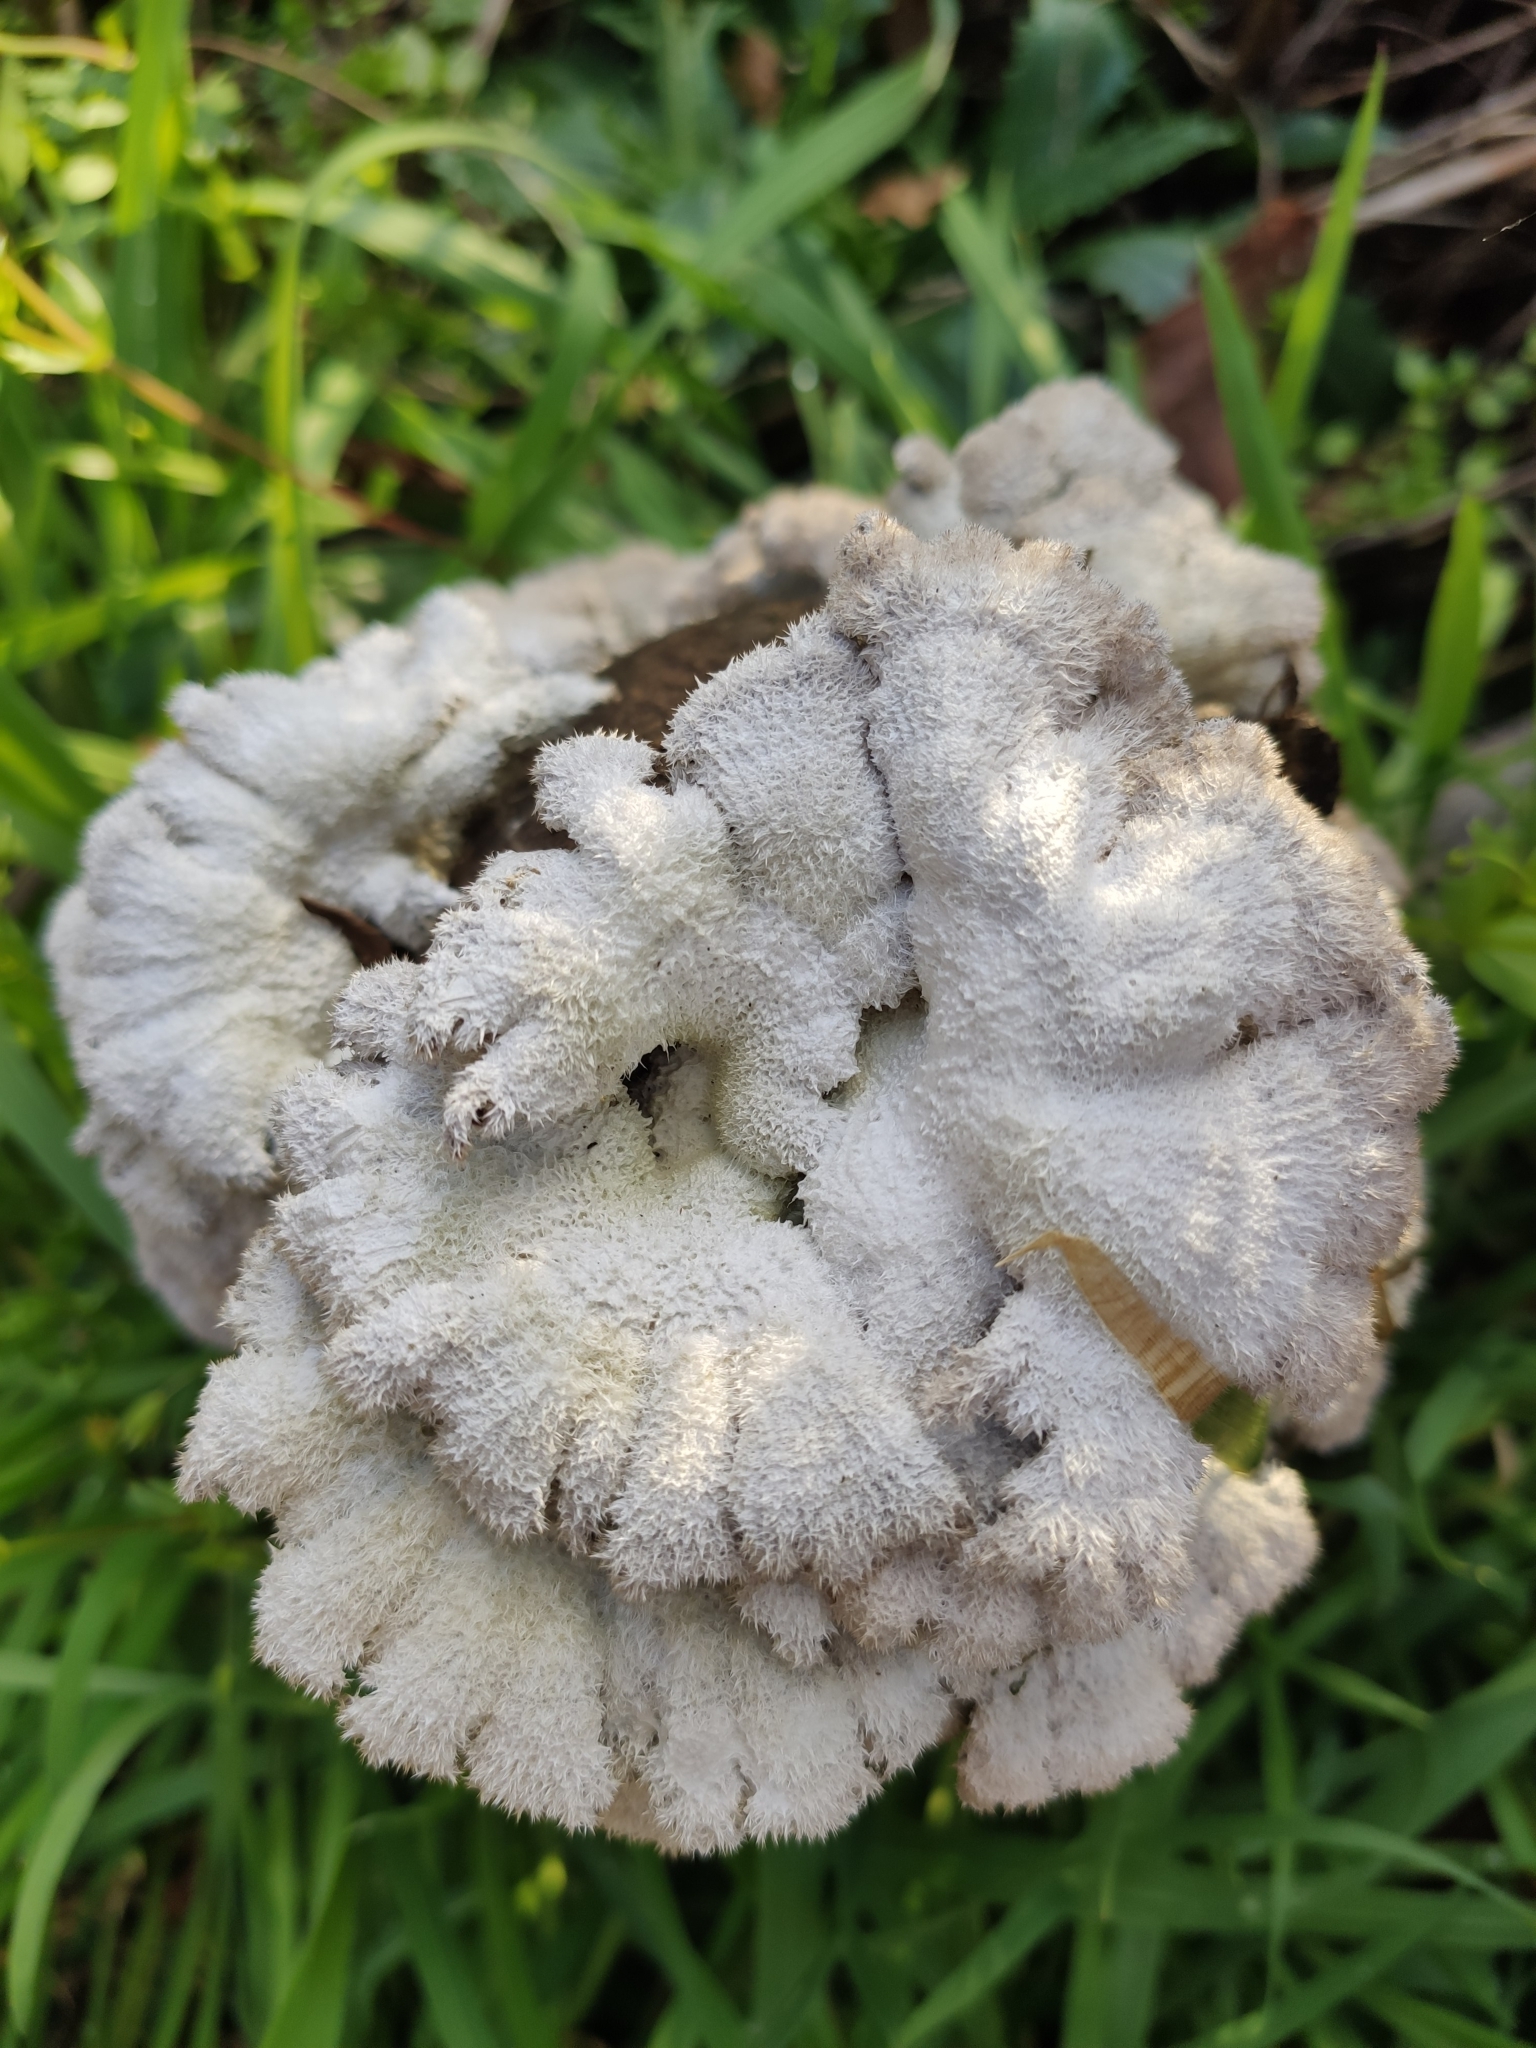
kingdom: Fungi
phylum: Basidiomycota
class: Agaricomycetes
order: Agaricales
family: Schizophyllaceae
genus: Schizophyllum
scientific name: Schizophyllum commune
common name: Common porecrust
